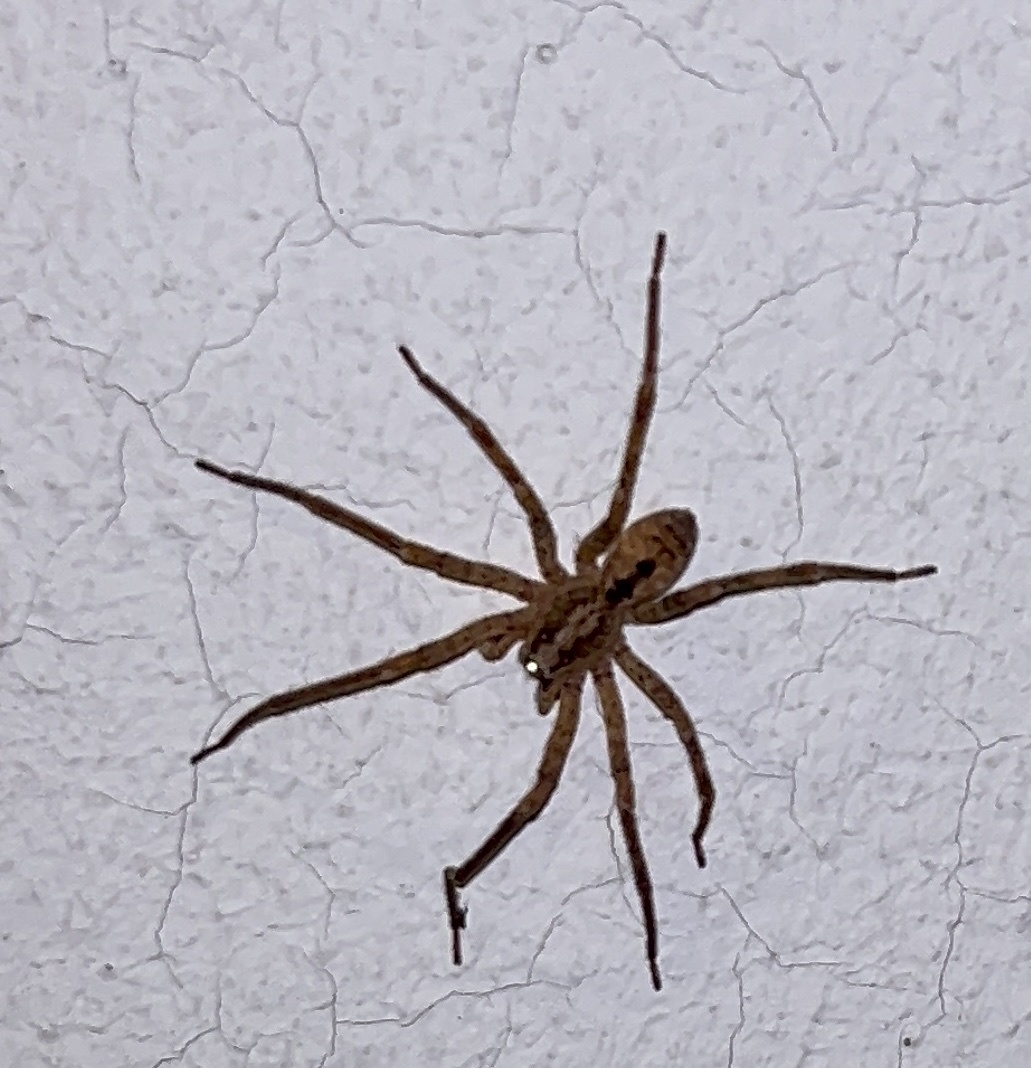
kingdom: Animalia
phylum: Arthropoda
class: Arachnida
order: Araneae
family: Zoropsidae
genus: Zoropsis
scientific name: Zoropsis spinimana
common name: Zoropsid spider
